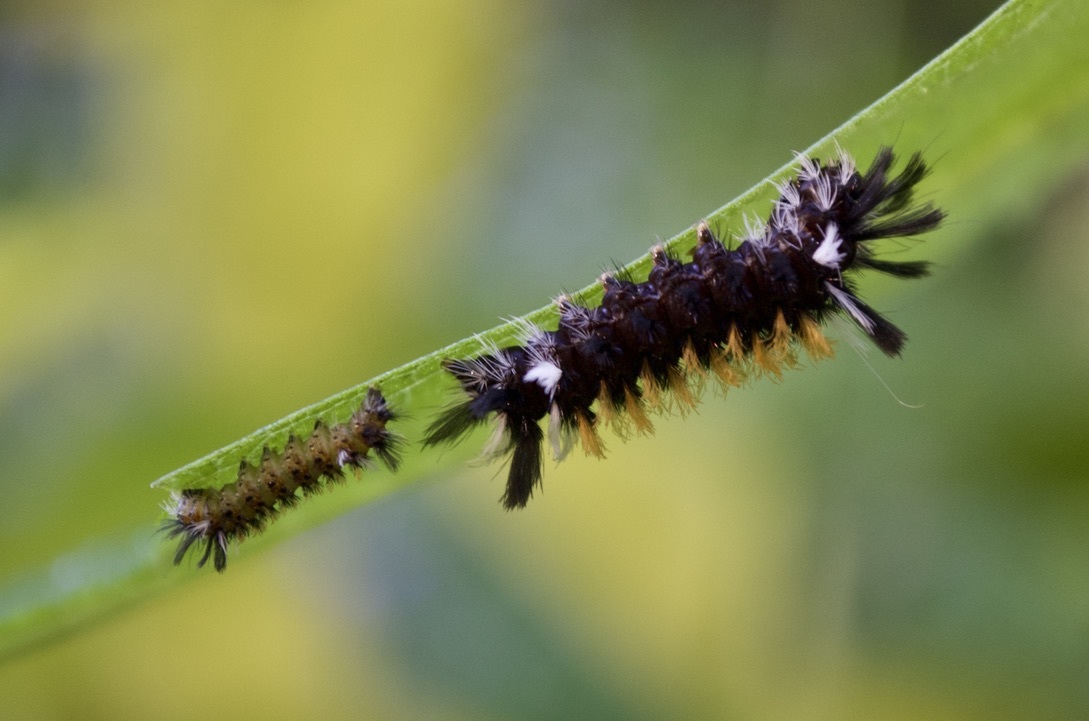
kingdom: Animalia
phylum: Arthropoda
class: Insecta
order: Lepidoptera
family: Erebidae
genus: Euchaetes
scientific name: Euchaetes egle
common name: Milkweed tussock moth
